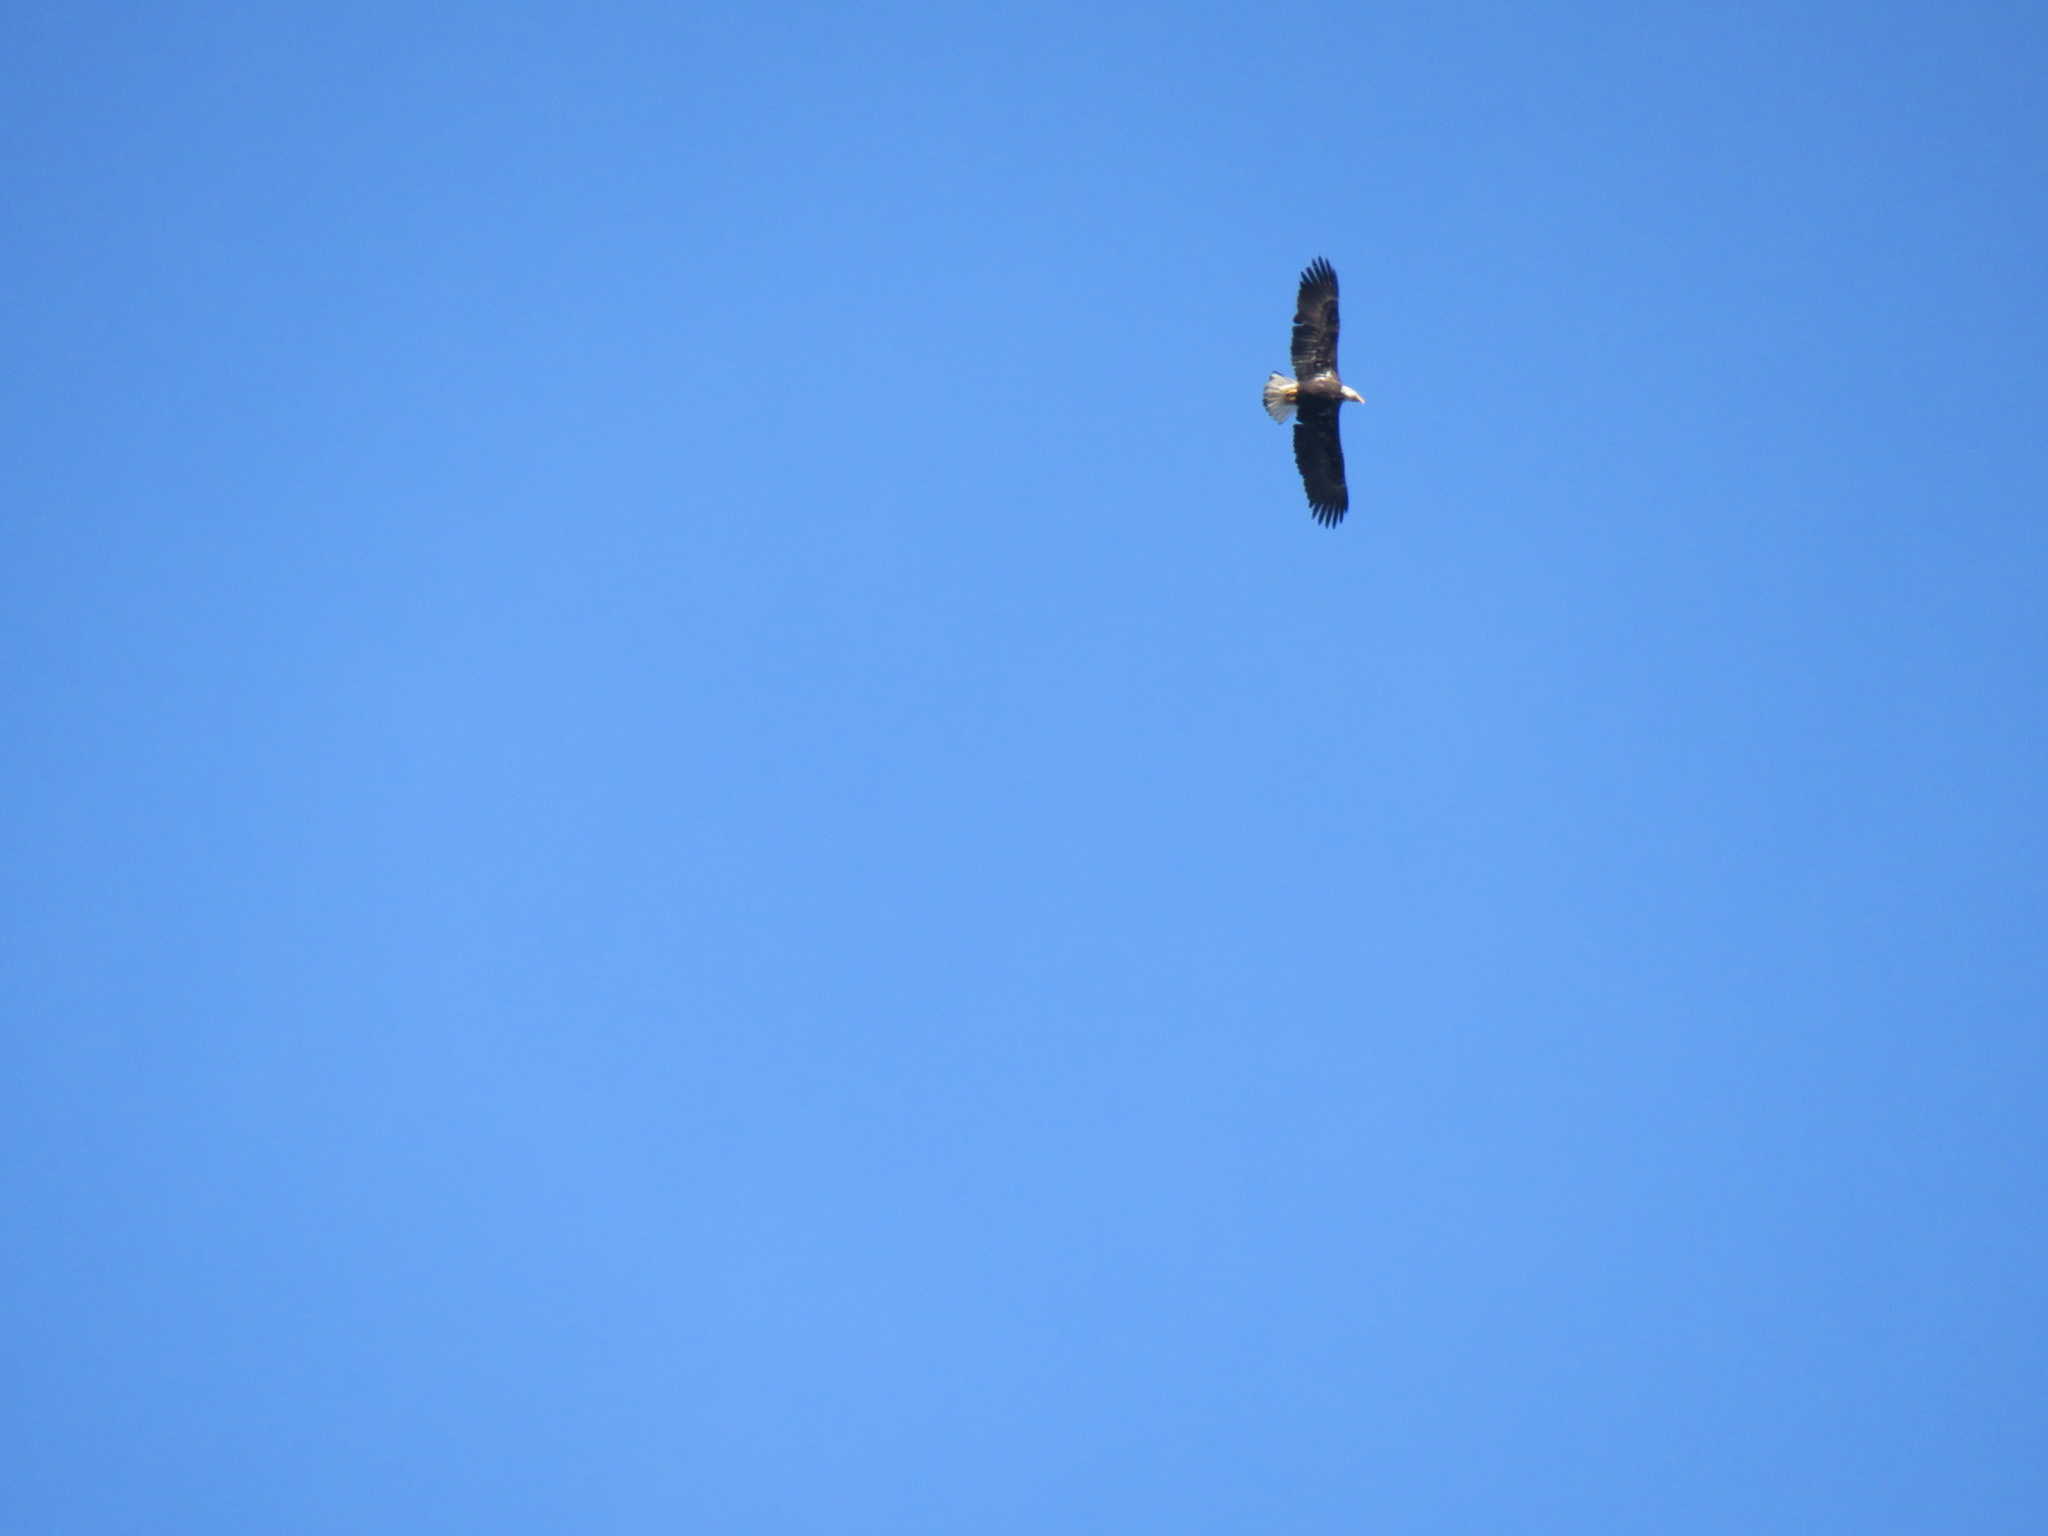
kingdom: Animalia
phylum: Chordata
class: Aves
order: Accipitriformes
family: Accipitridae
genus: Haliaeetus
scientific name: Haliaeetus leucocephalus
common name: Bald eagle
